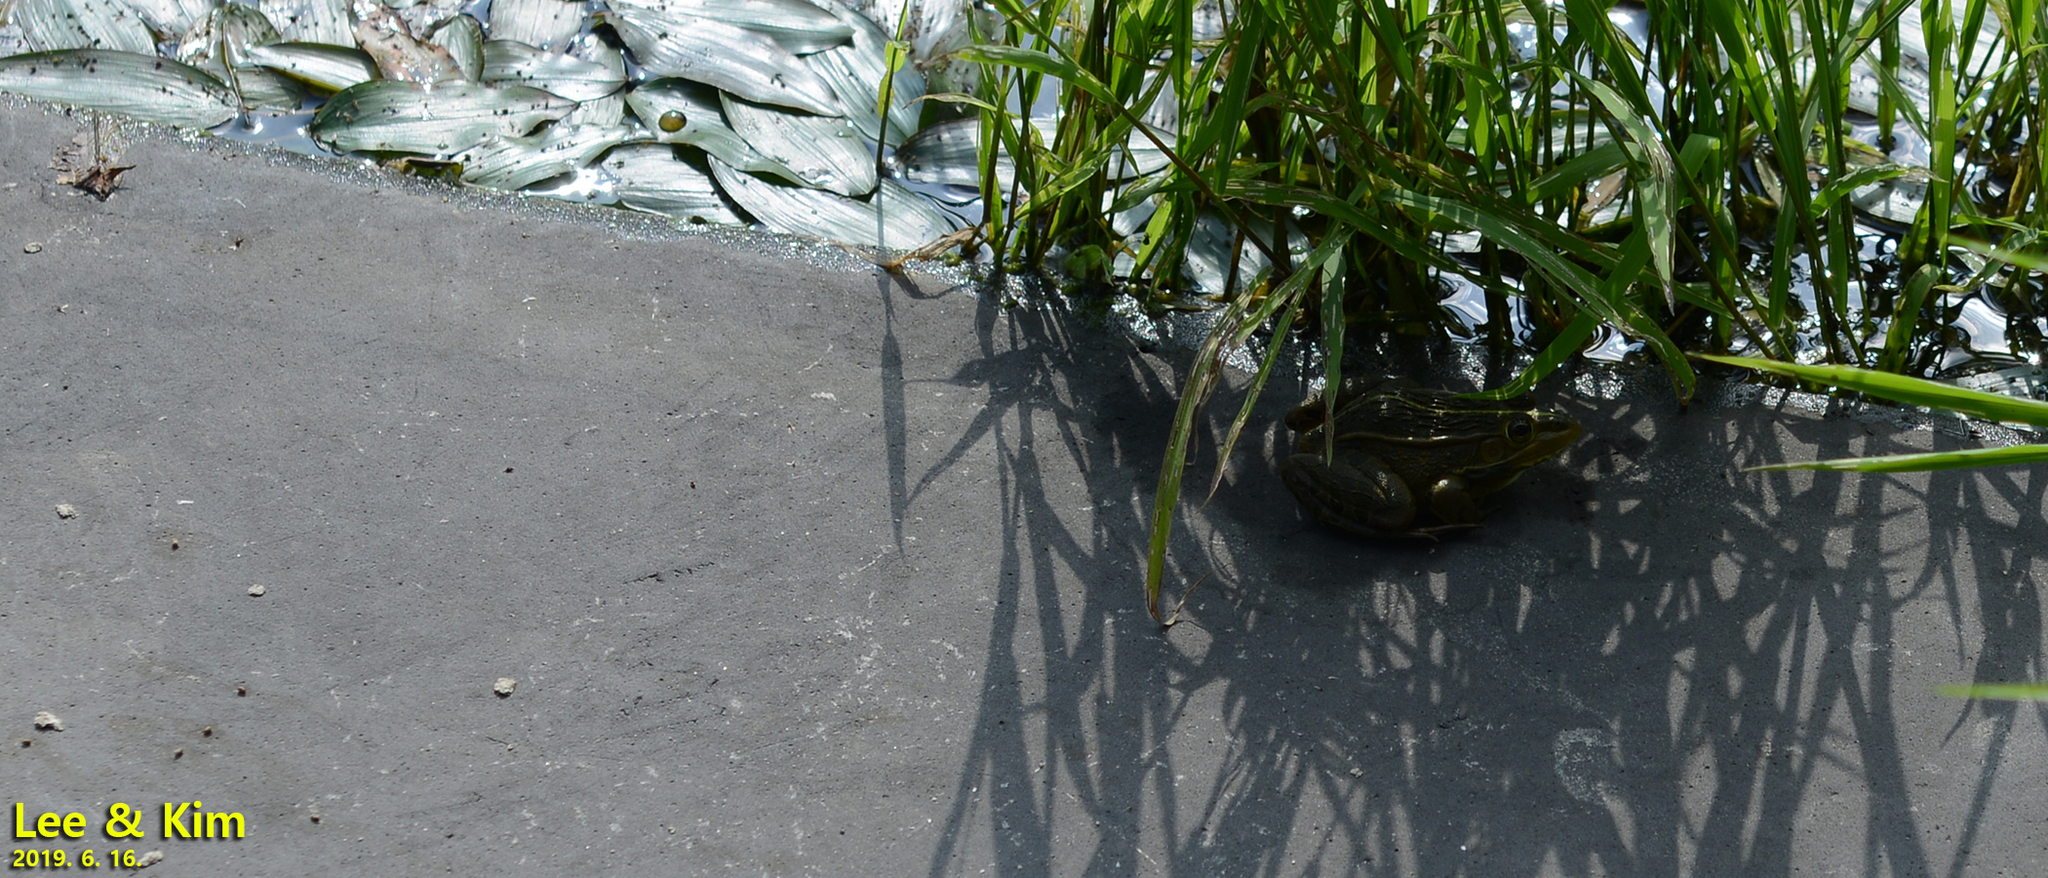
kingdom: Animalia
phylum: Chordata
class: Amphibia
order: Anura
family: Ranidae
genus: Pelophylax
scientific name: Pelophylax nigromaculatus
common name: Black-spotted pond frog
